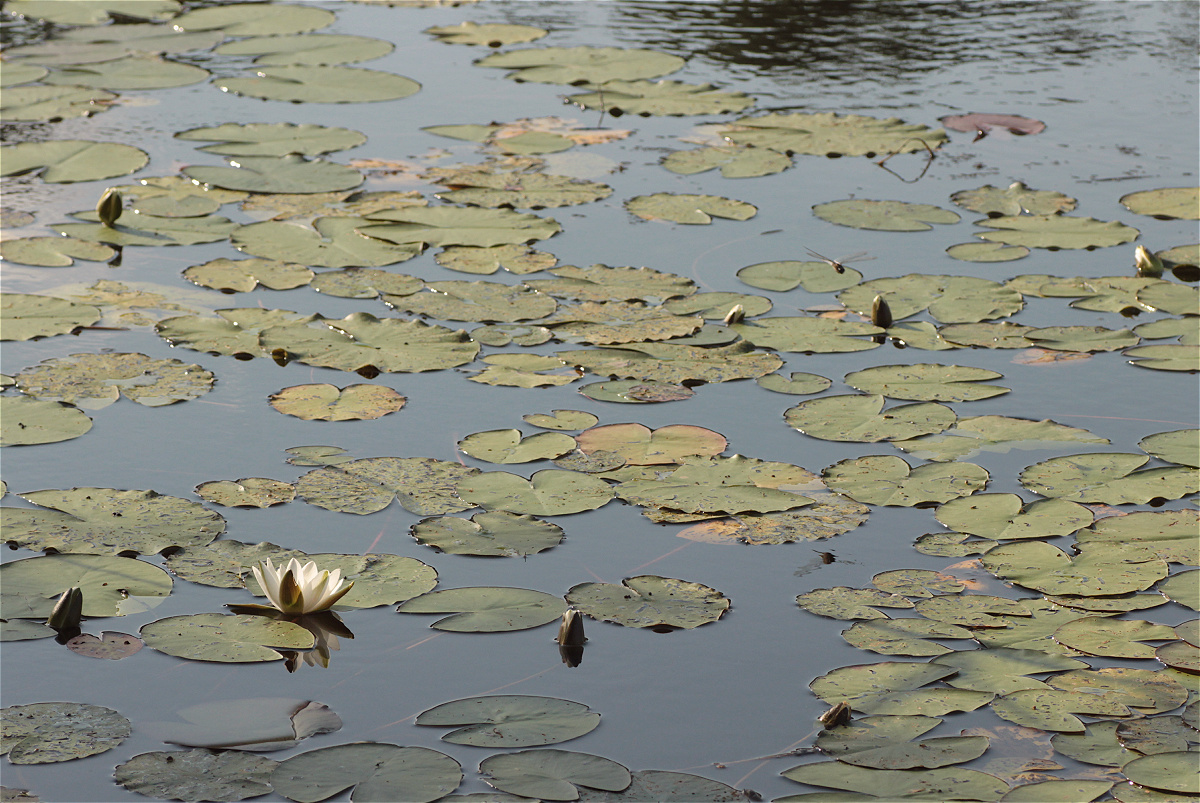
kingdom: Plantae
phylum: Tracheophyta
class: Magnoliopsida
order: Nymphaeales
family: Nymphaeaceae
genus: Nymphaea
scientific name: Nymphaea alba
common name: White water-lily
